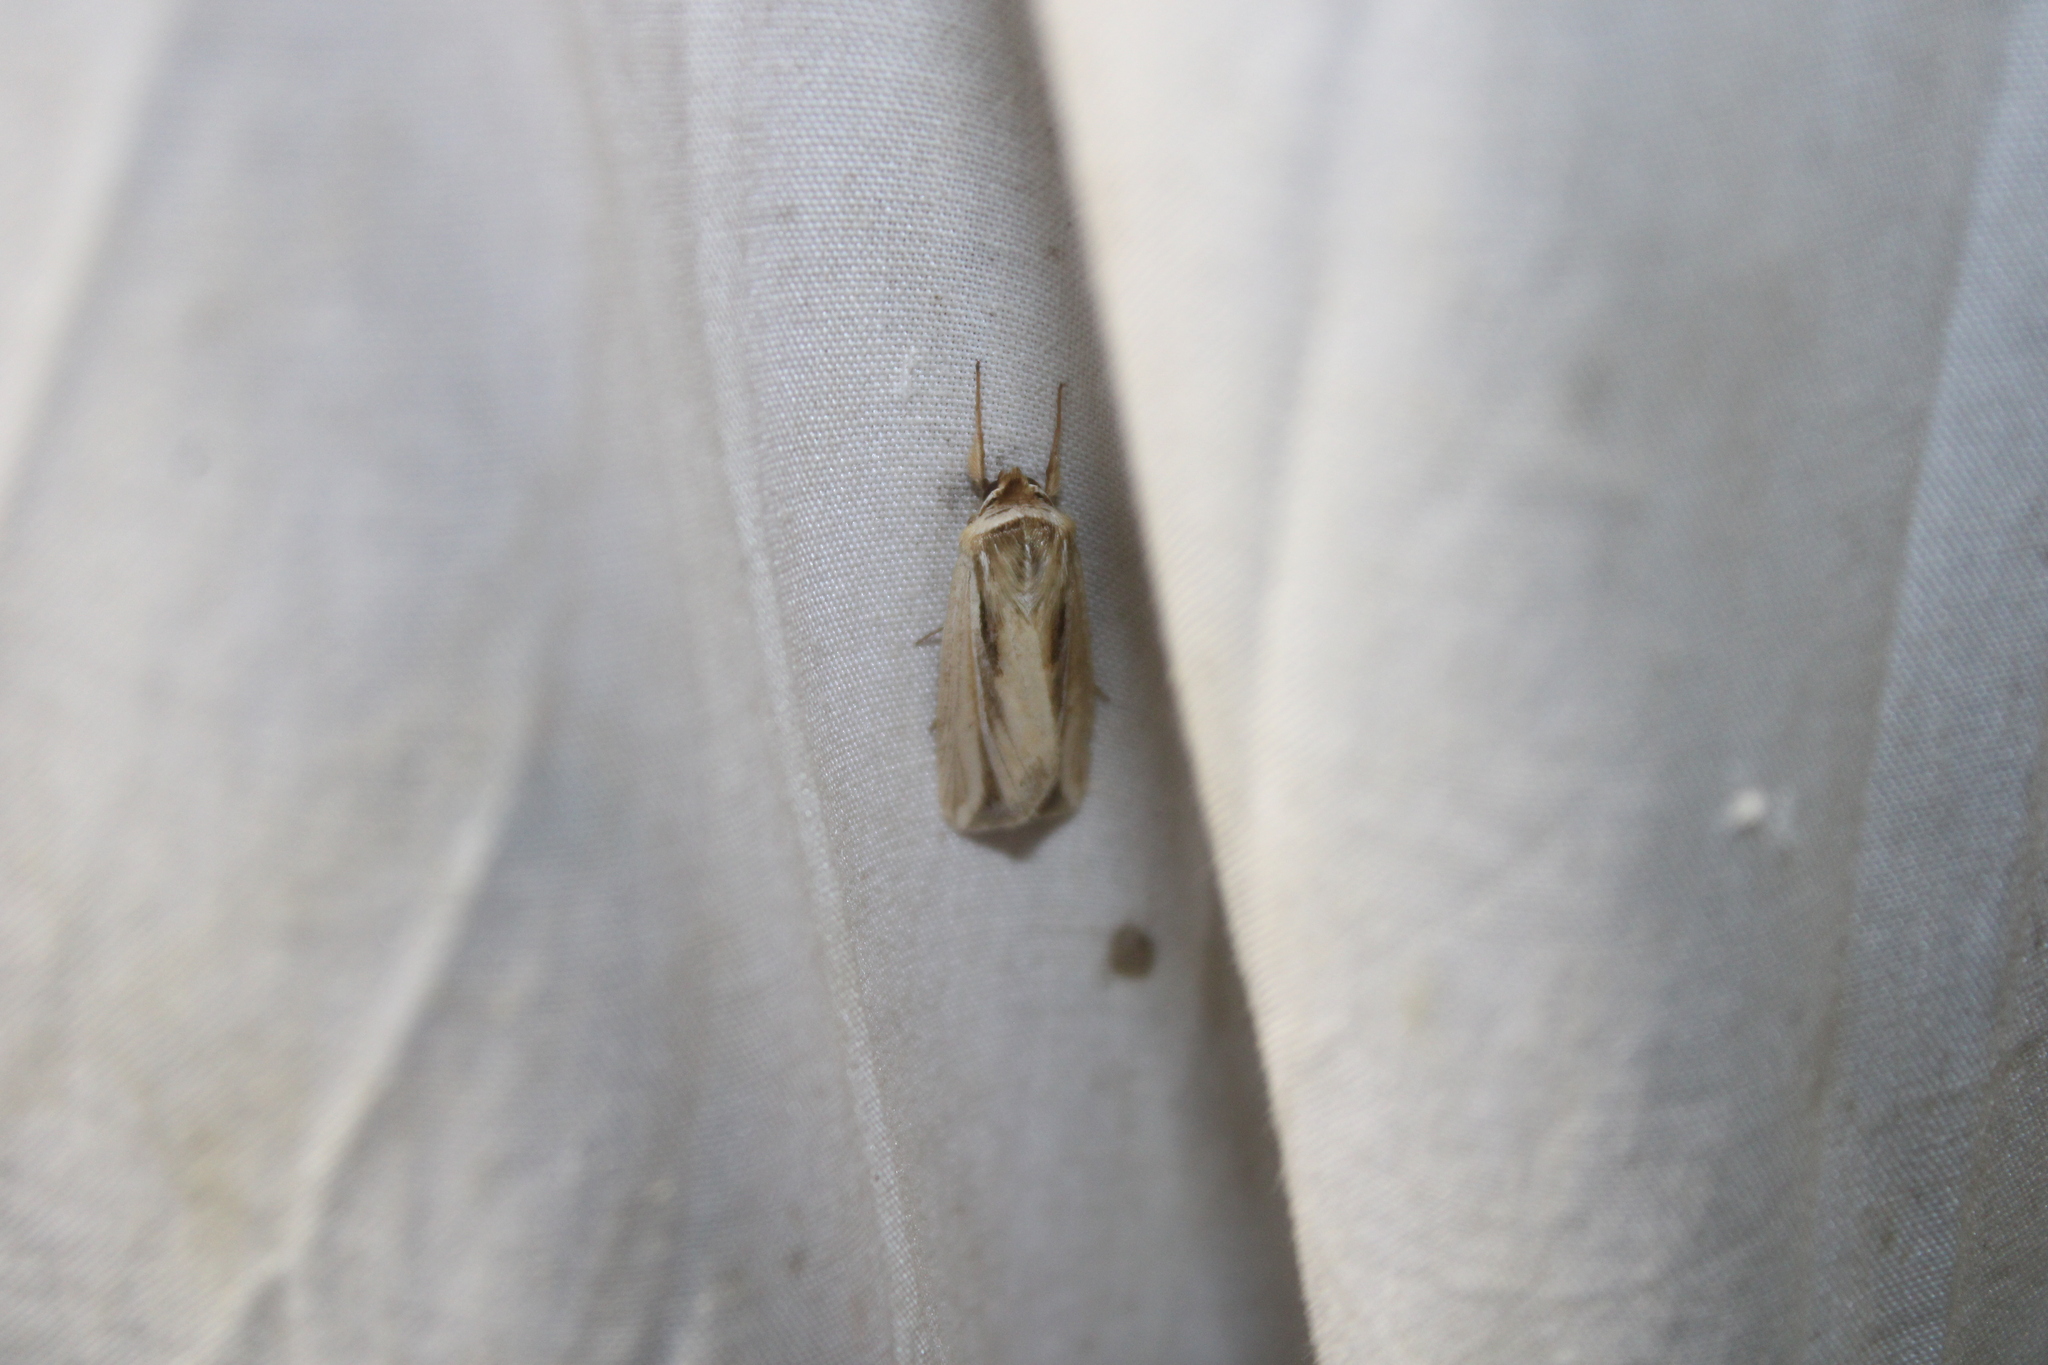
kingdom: Animalia
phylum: Arthropoda
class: Insecta
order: Lepidoptera
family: Noctuidae
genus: Dargida
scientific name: Dargida diffusa
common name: Wheat head armyworm
